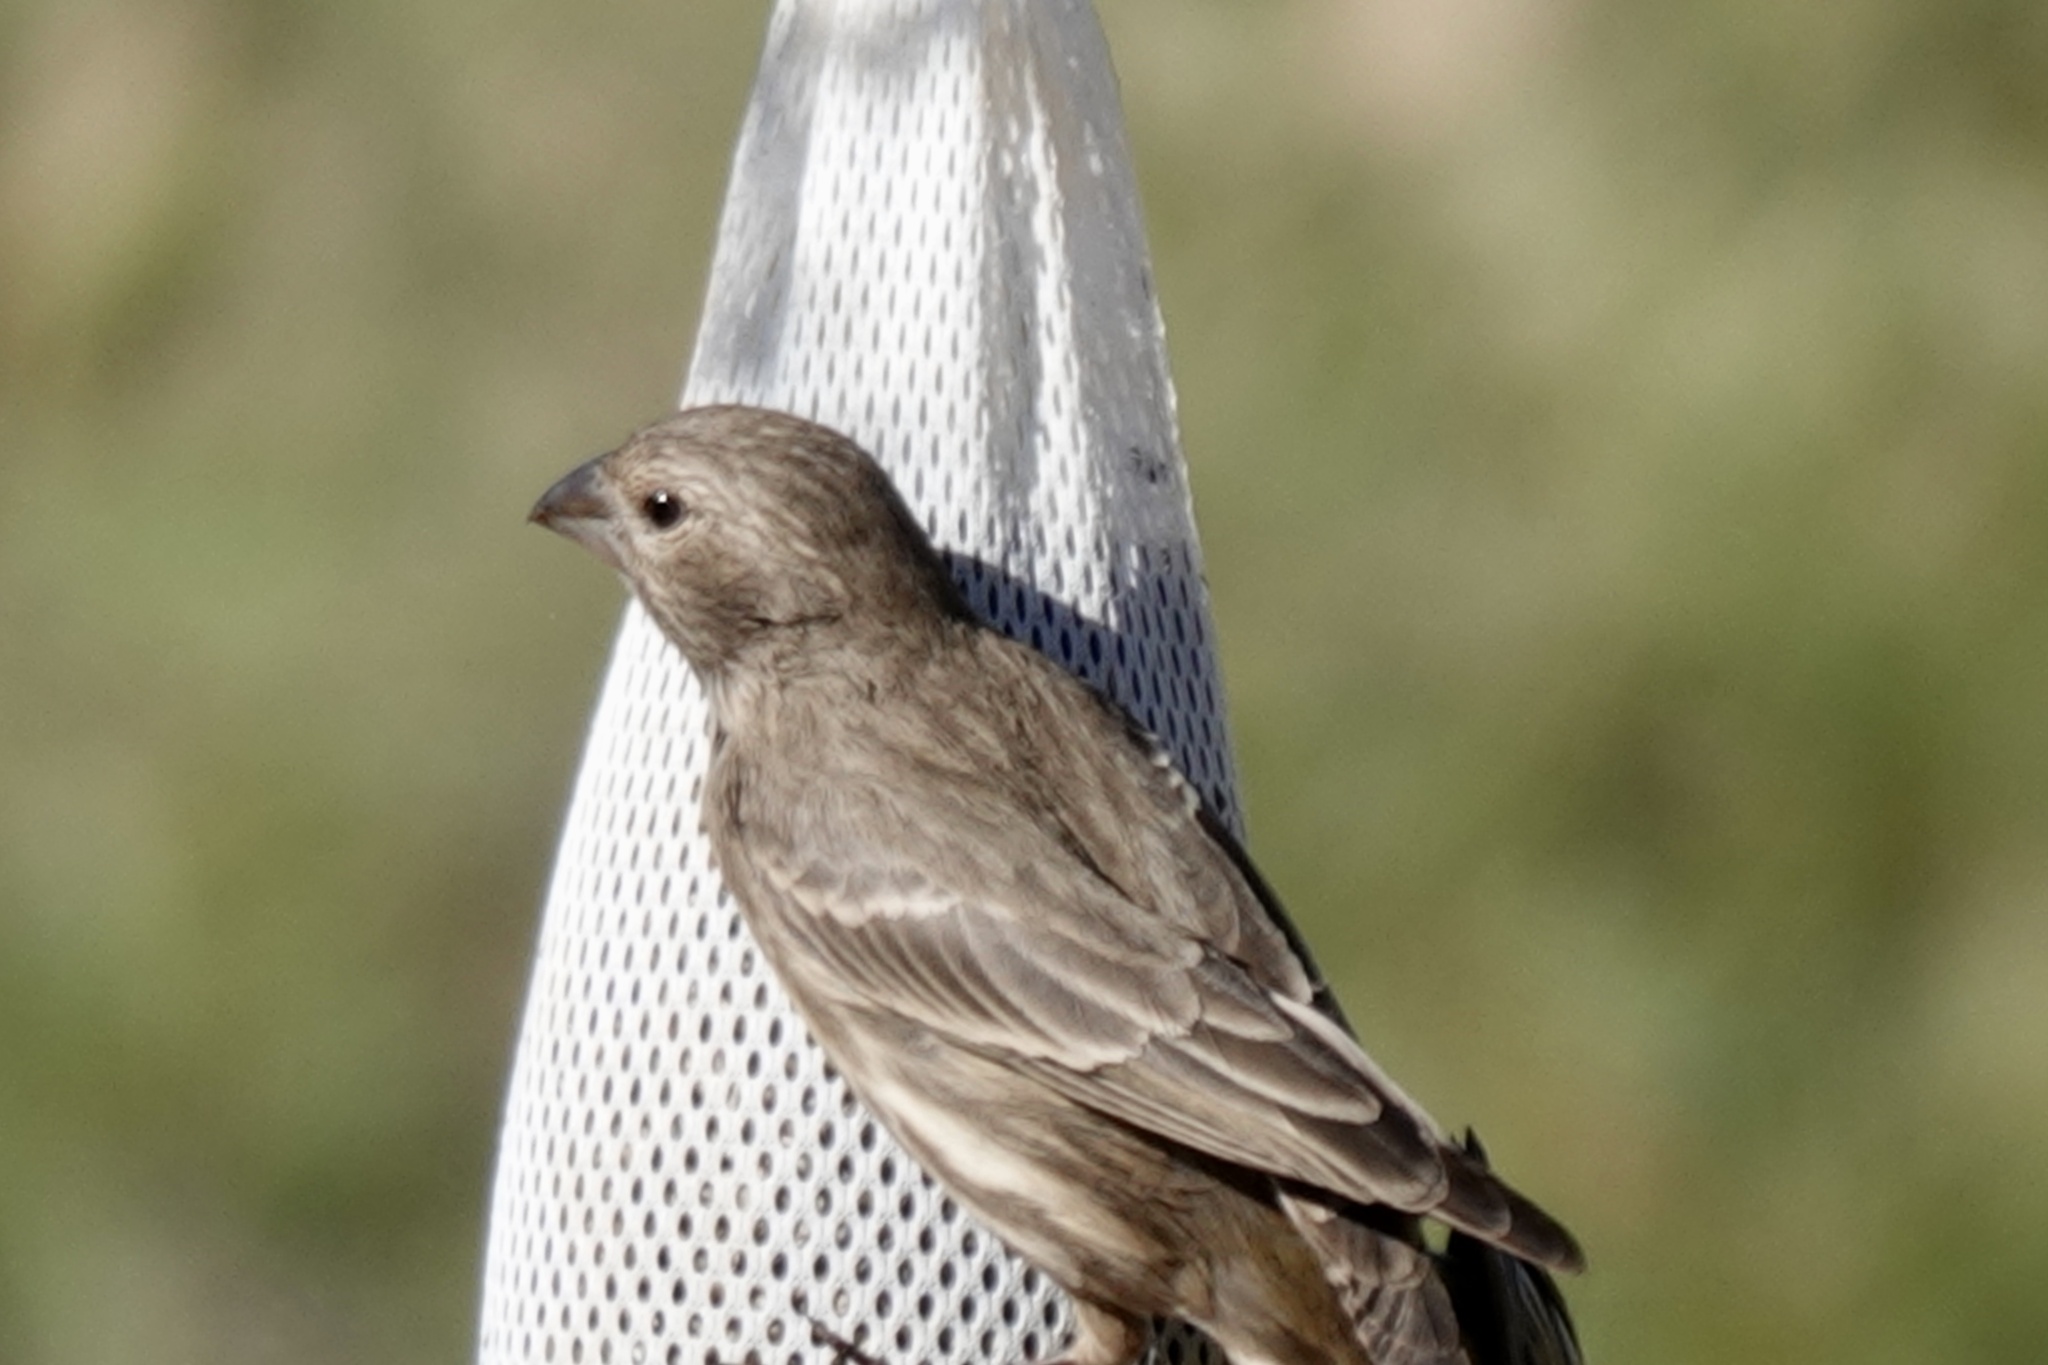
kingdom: Animalia
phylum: Chordata
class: Aves
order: Passeriformes
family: Fringillidae
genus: Haemorhous
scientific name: Haemorhous mexicanus
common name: House finch
